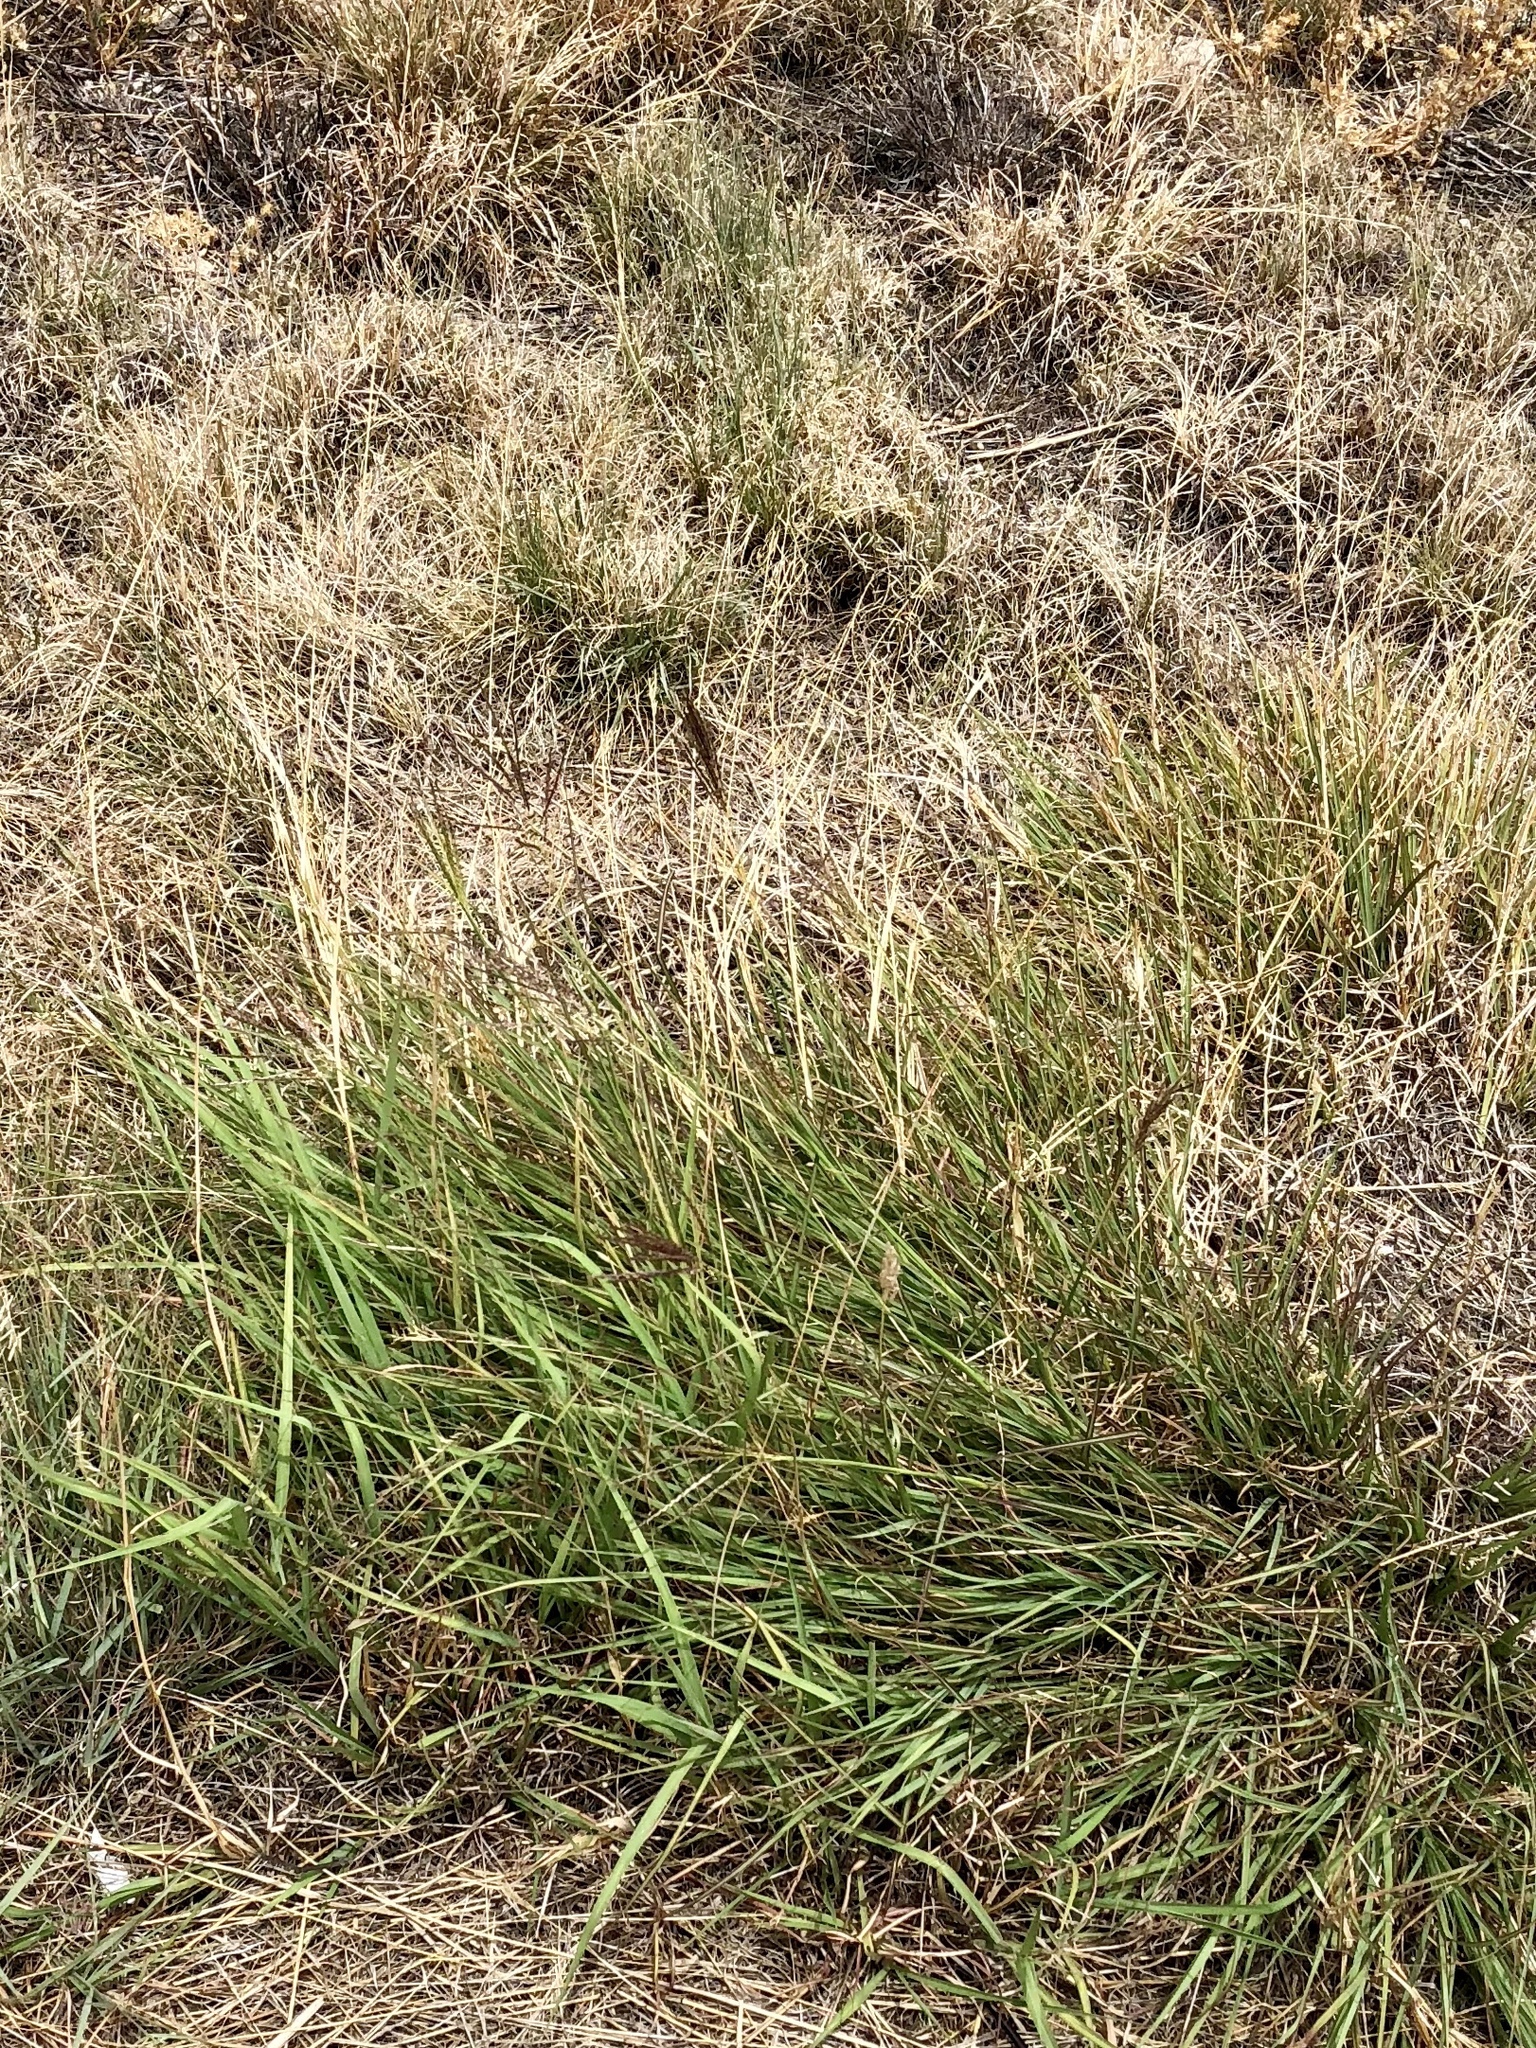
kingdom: Plantae
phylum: Tracheophyta
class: Liliopsida
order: Poales
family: Poaceae
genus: Bothriochloa
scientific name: Bothriochloa ischaemum
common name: Yellow bluestem
